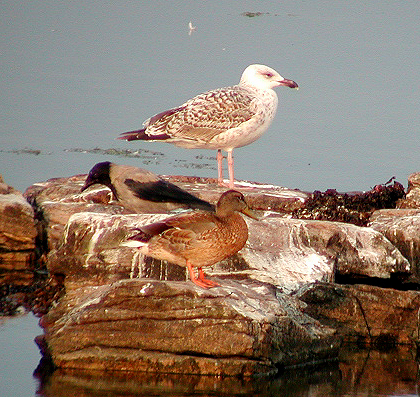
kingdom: Animalia
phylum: Chordata
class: Aves
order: Charadriiformes
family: Laridae
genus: Larus
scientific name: Larus marinus
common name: Great black-backed gull
